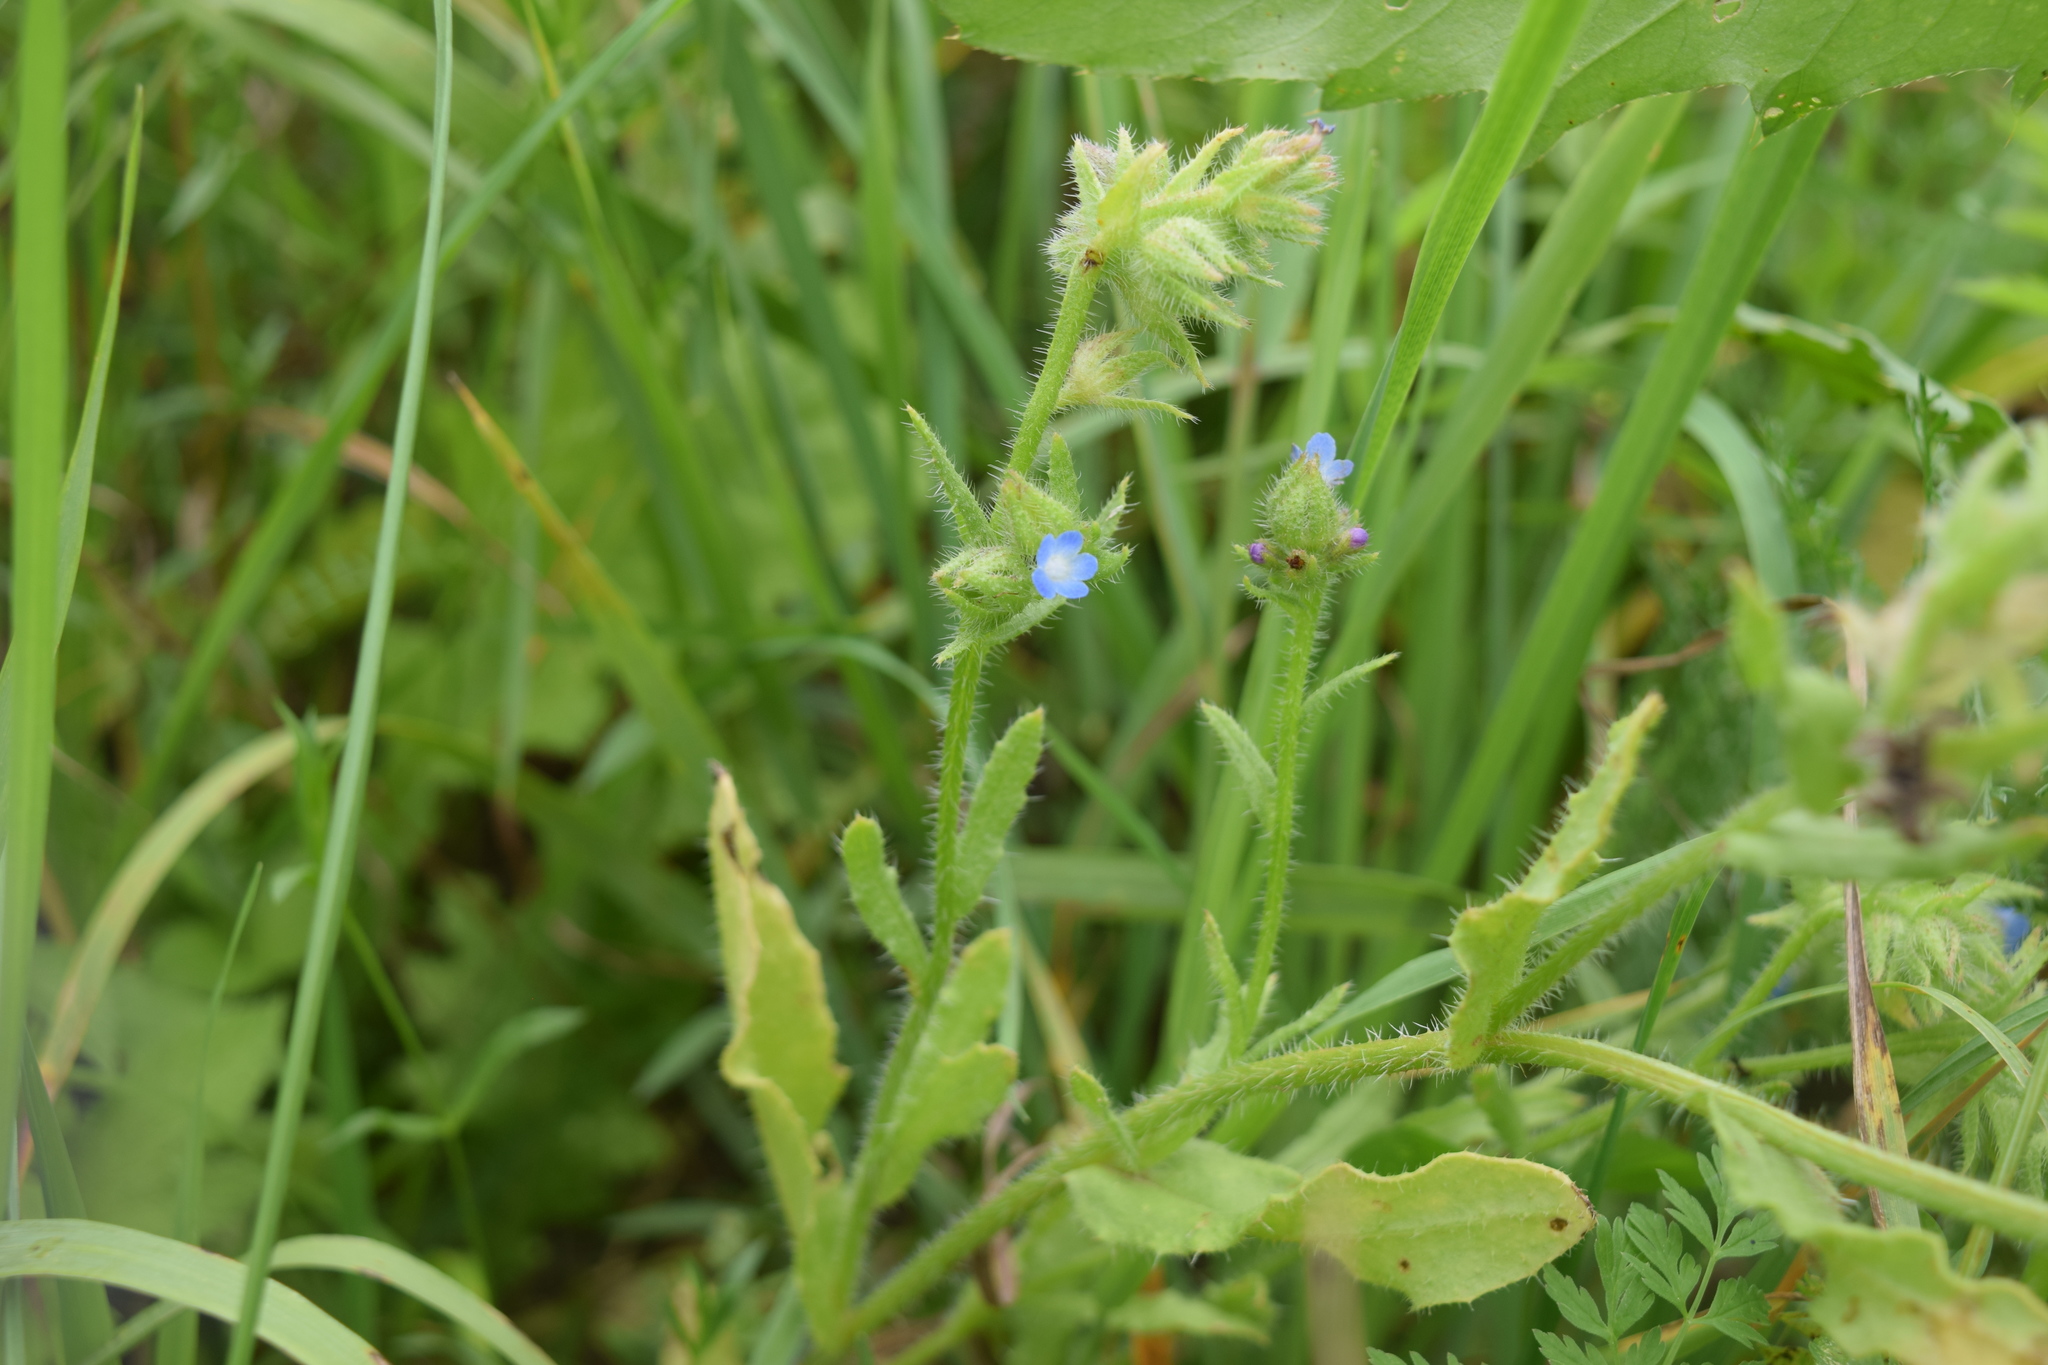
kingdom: Plantae
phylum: Tracheophyta
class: Magnoliopsida
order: Boraginales
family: Boraginaceae
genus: Lycopsis
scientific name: Lycopsis arvensis
